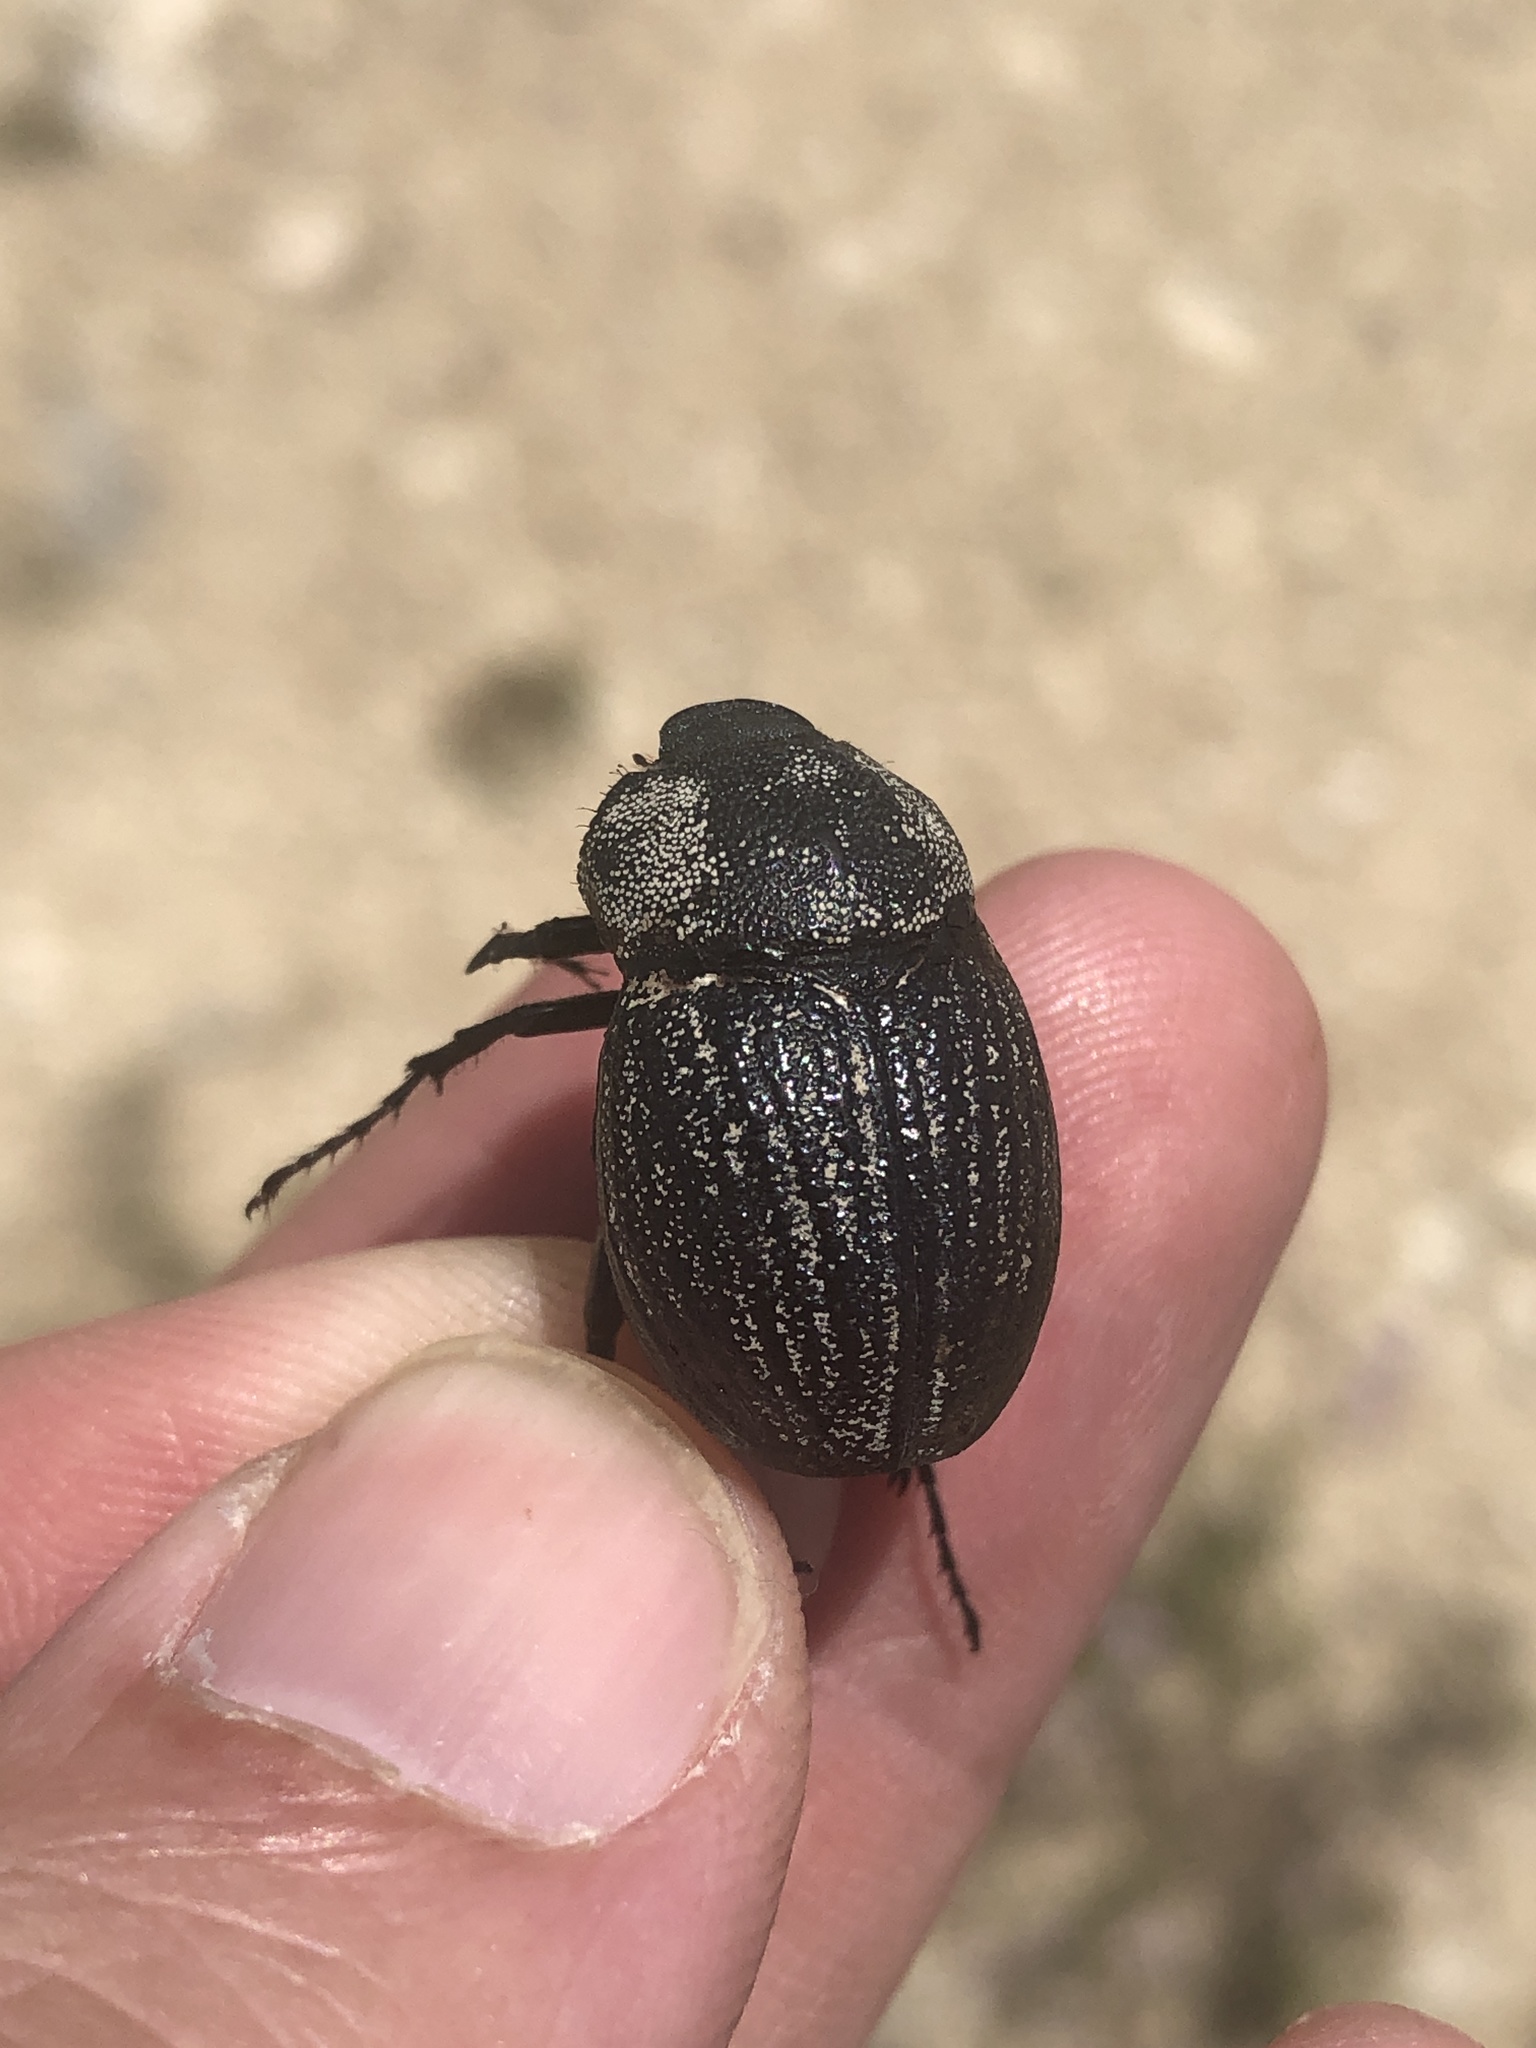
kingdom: Animalia
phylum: Arthropoda
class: Insecta
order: Coleoptera
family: Scarabaeidae
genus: Phyllophaga
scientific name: Phyllophaga cribrosa
